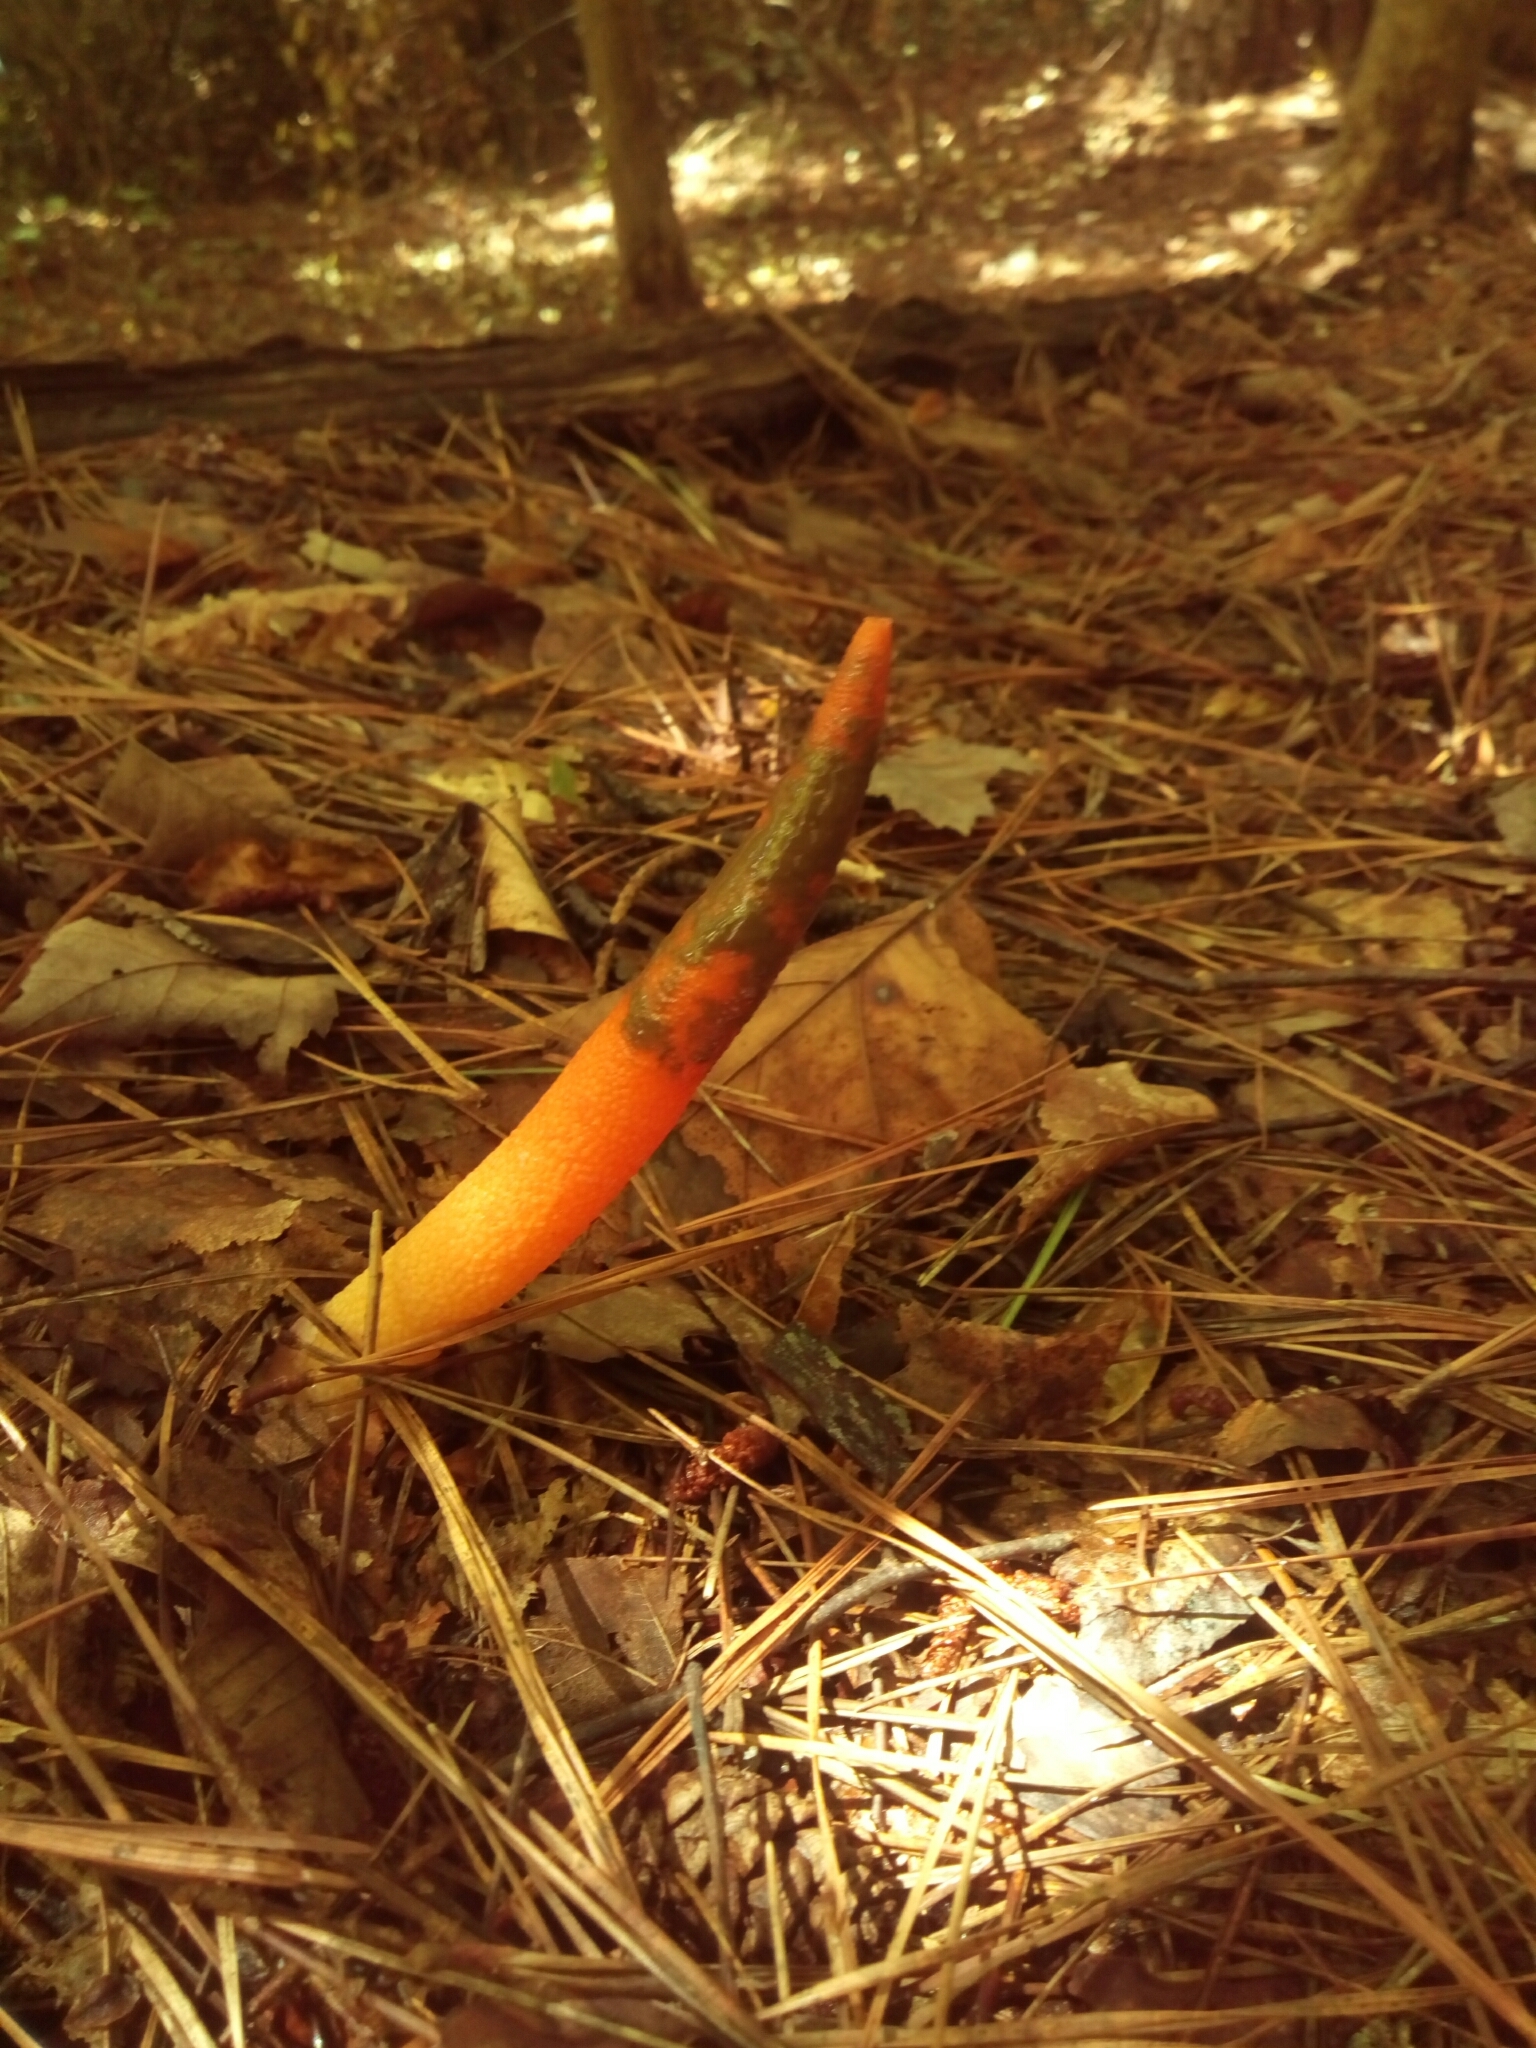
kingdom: Fungi
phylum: Basidiomycota
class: Agaricomycetes
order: Phallales
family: Phallaceae
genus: Mutinus
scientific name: Mutinus elegans
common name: Devil's dipstick
